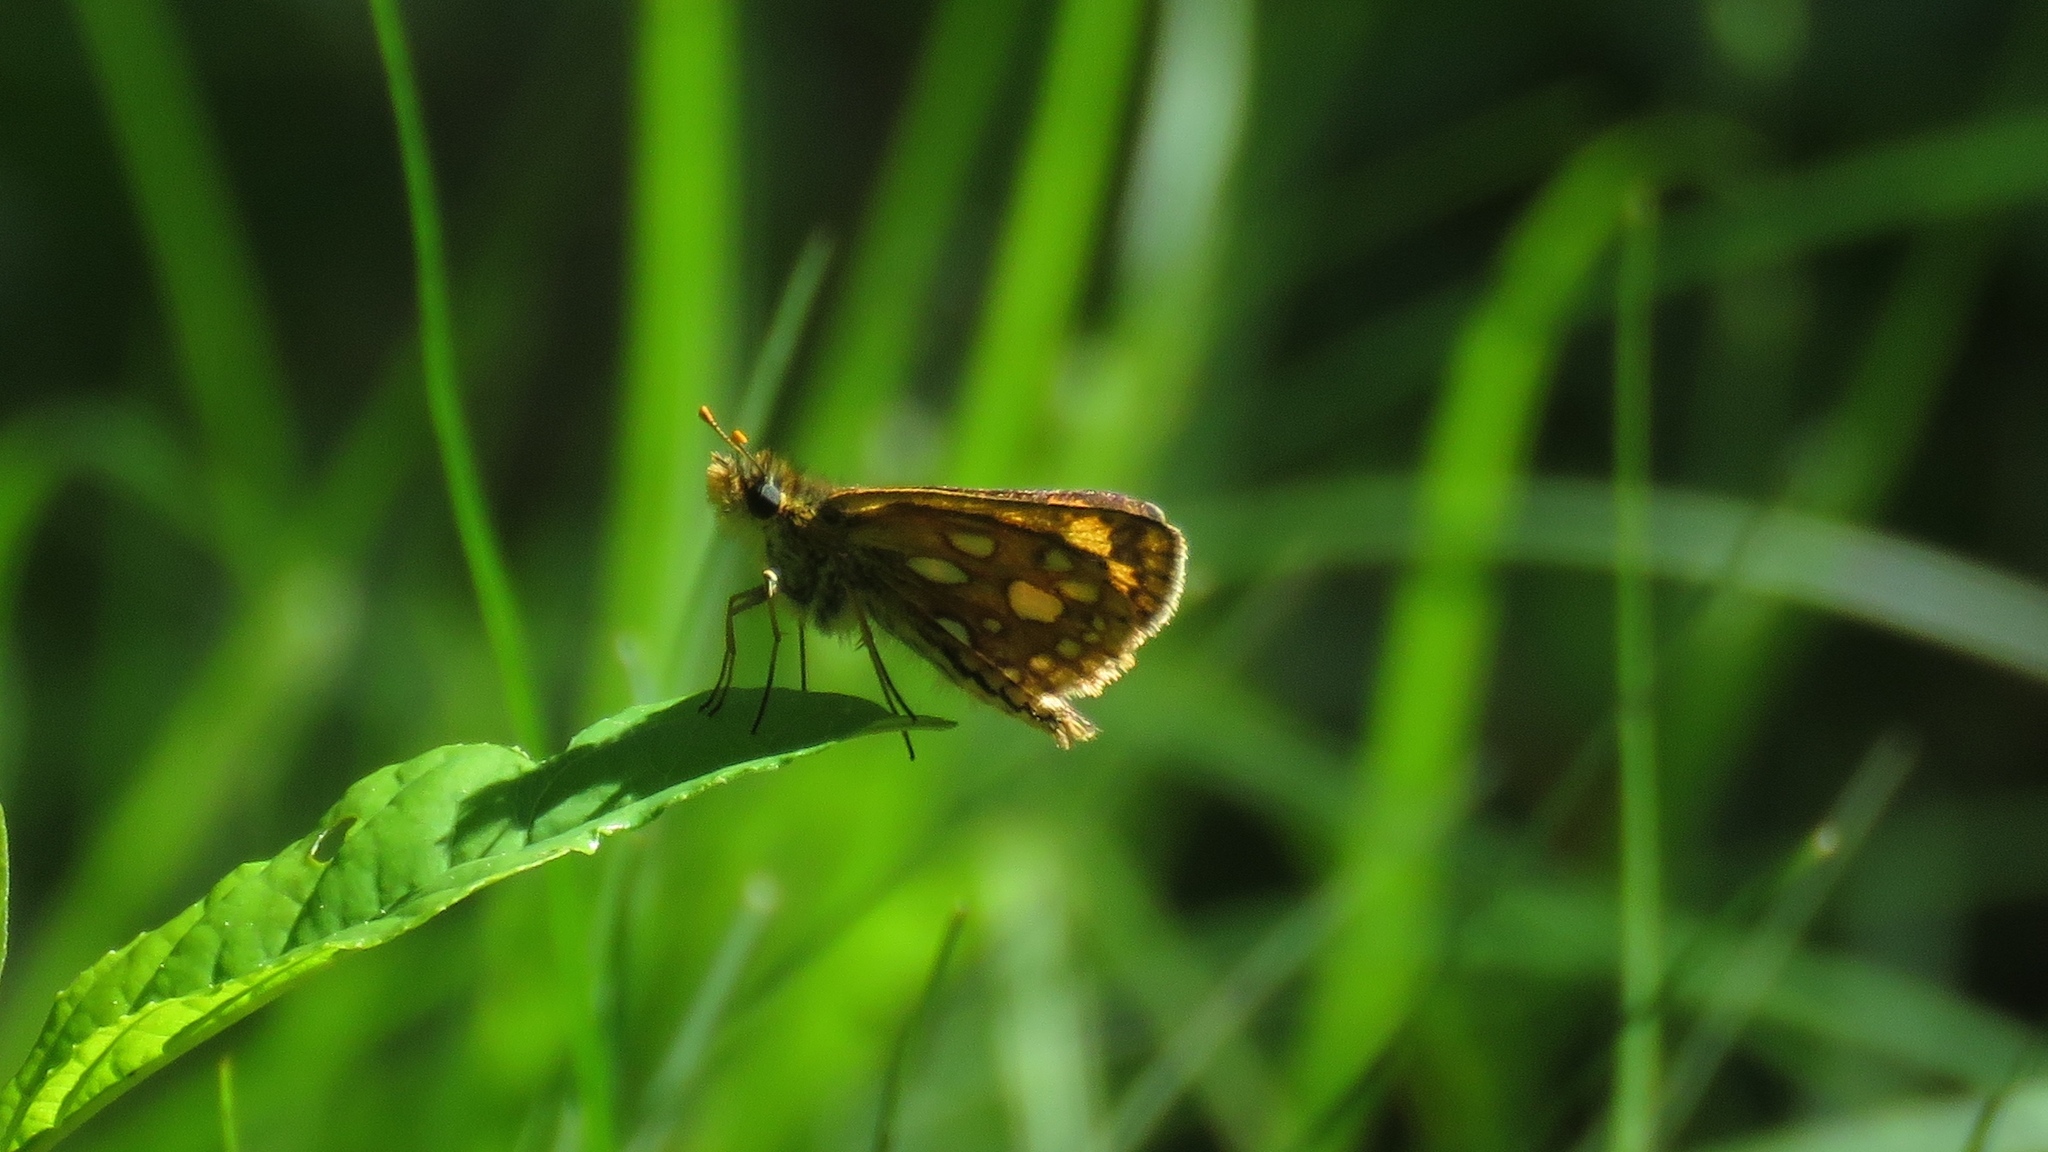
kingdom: Animalia
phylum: Arthropoda
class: Insecta
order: Lepidoptera
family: Hesperiidae
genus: Carterocephalus
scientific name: Carterocephalus mandan
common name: Arctic skipperling
